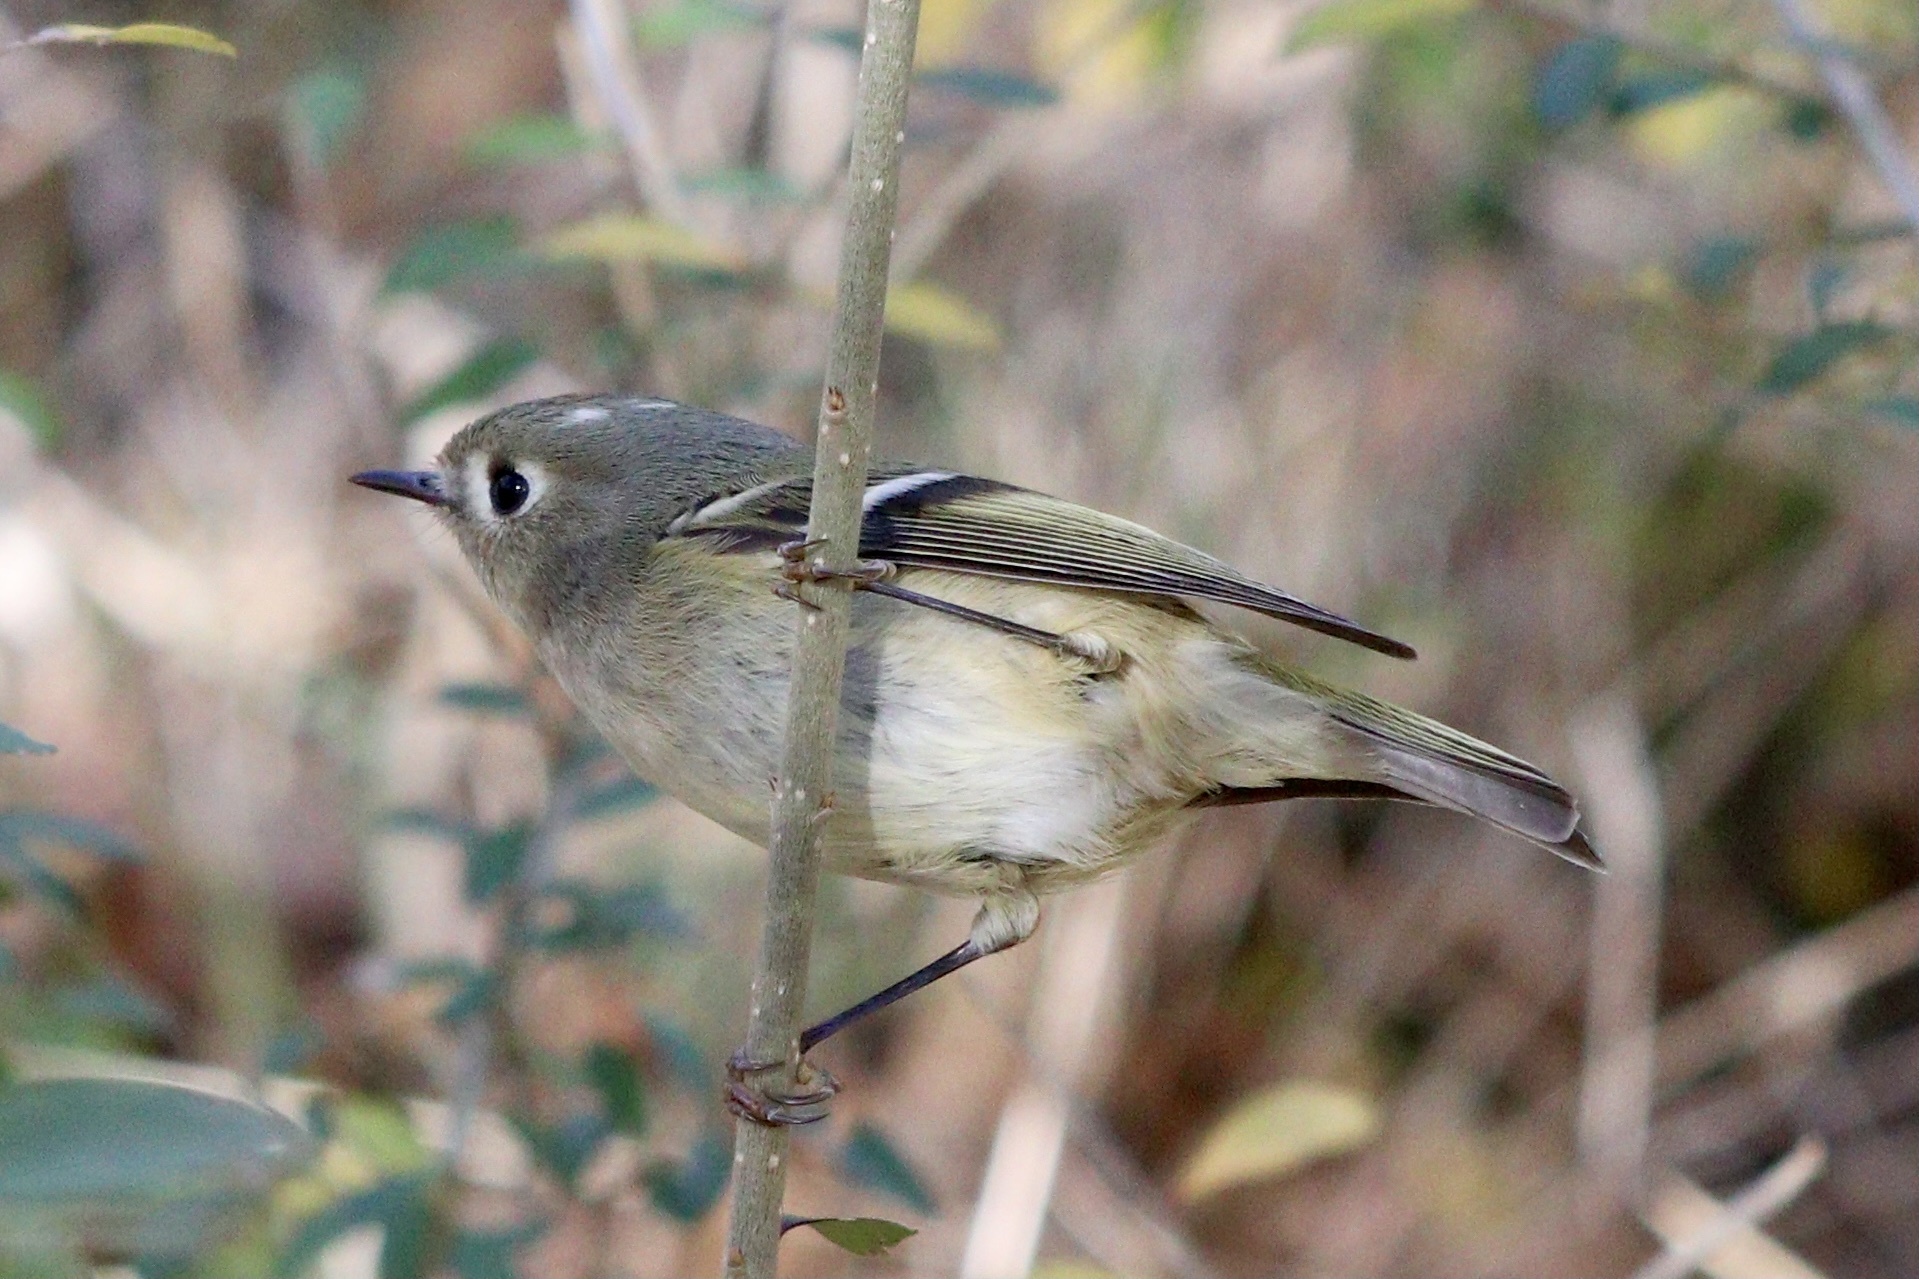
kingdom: Animalia
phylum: Chordata
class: Aves
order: Passeriformes
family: Regulidae
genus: Regulus
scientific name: Regulus calendula
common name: Ruby-crowned kinglet
